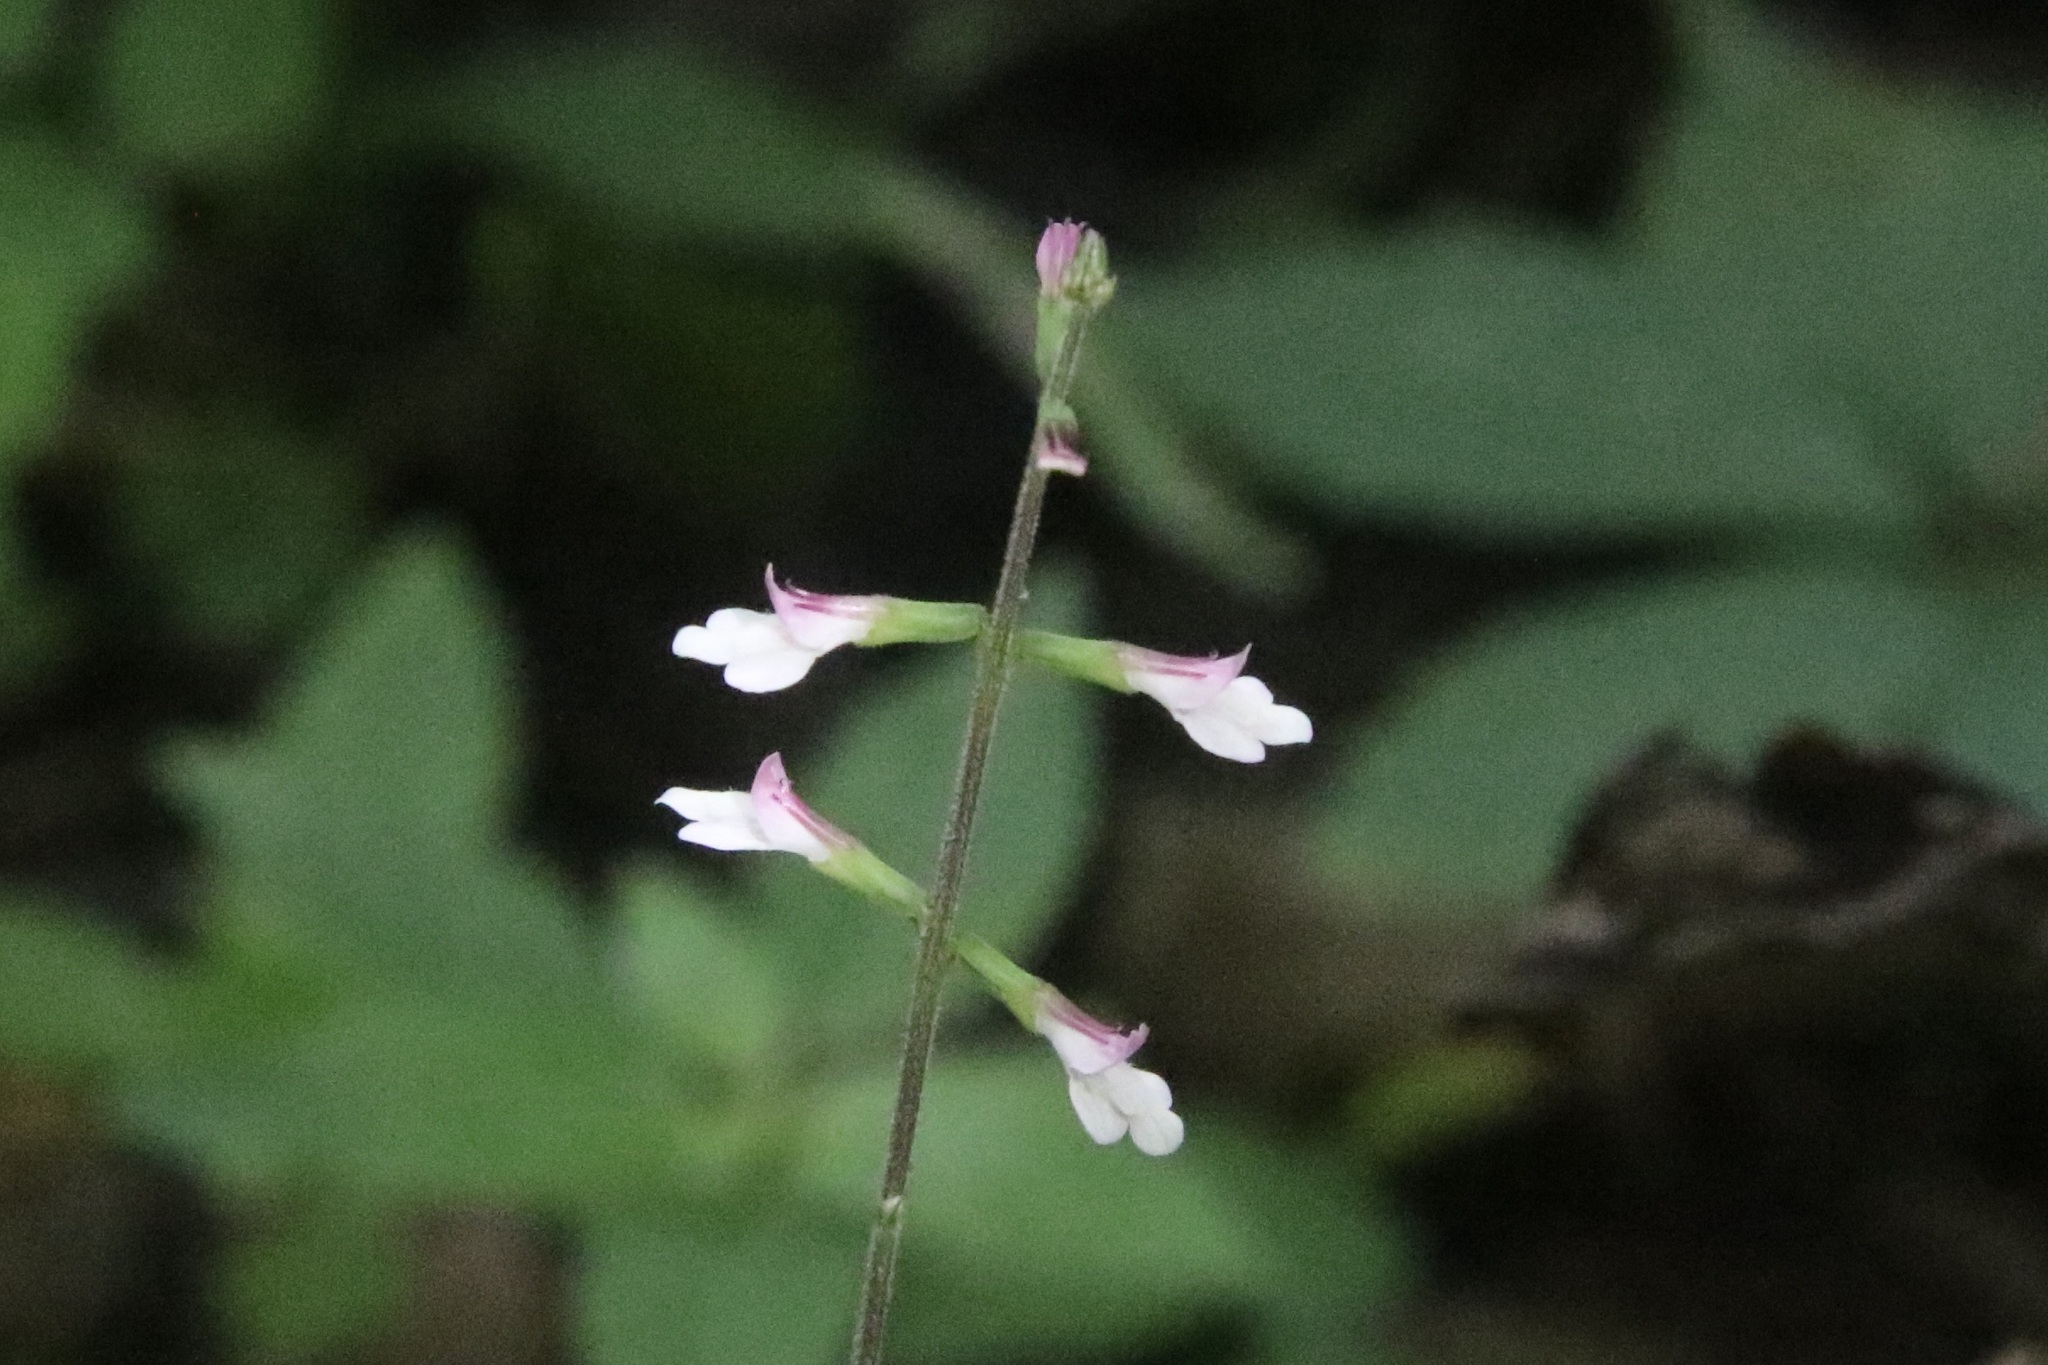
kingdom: Plantae
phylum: Tracheophyta
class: Magnoliopsida
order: Lamiales
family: Phrymaceae
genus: Phryma
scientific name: Phryma leptostachya
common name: American lopseed
